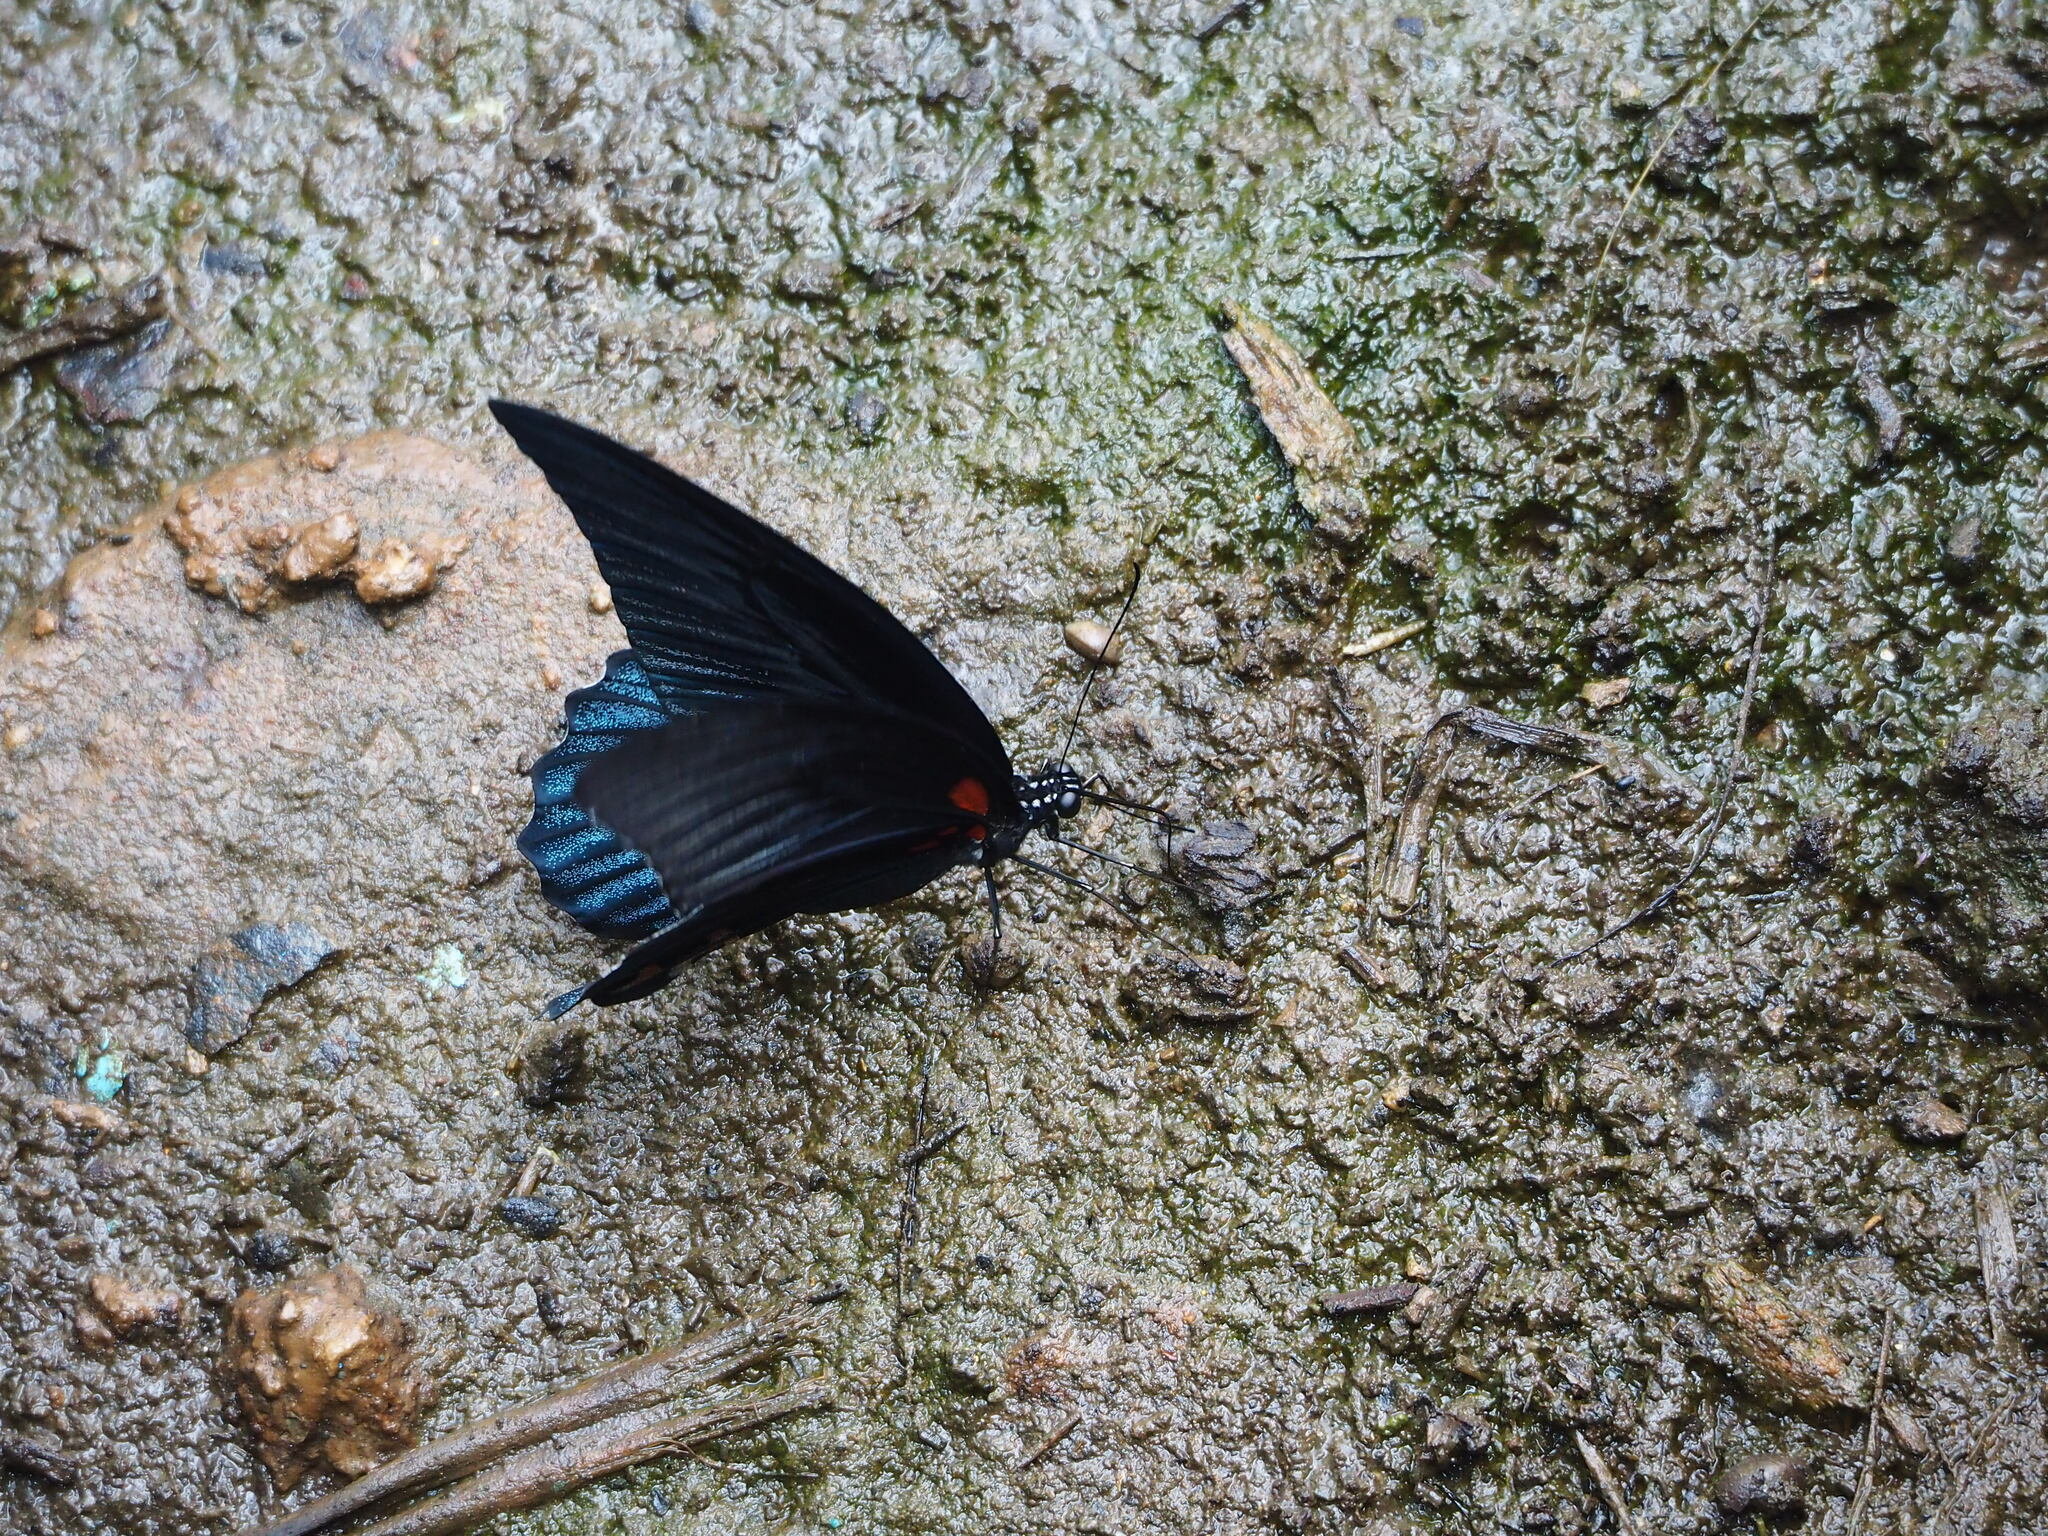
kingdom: Animalia
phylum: Arthropoda
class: Insecta
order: Lepidoptera
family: Papilionidae
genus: Papilio
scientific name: Papilio memnon
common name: Great mormon
